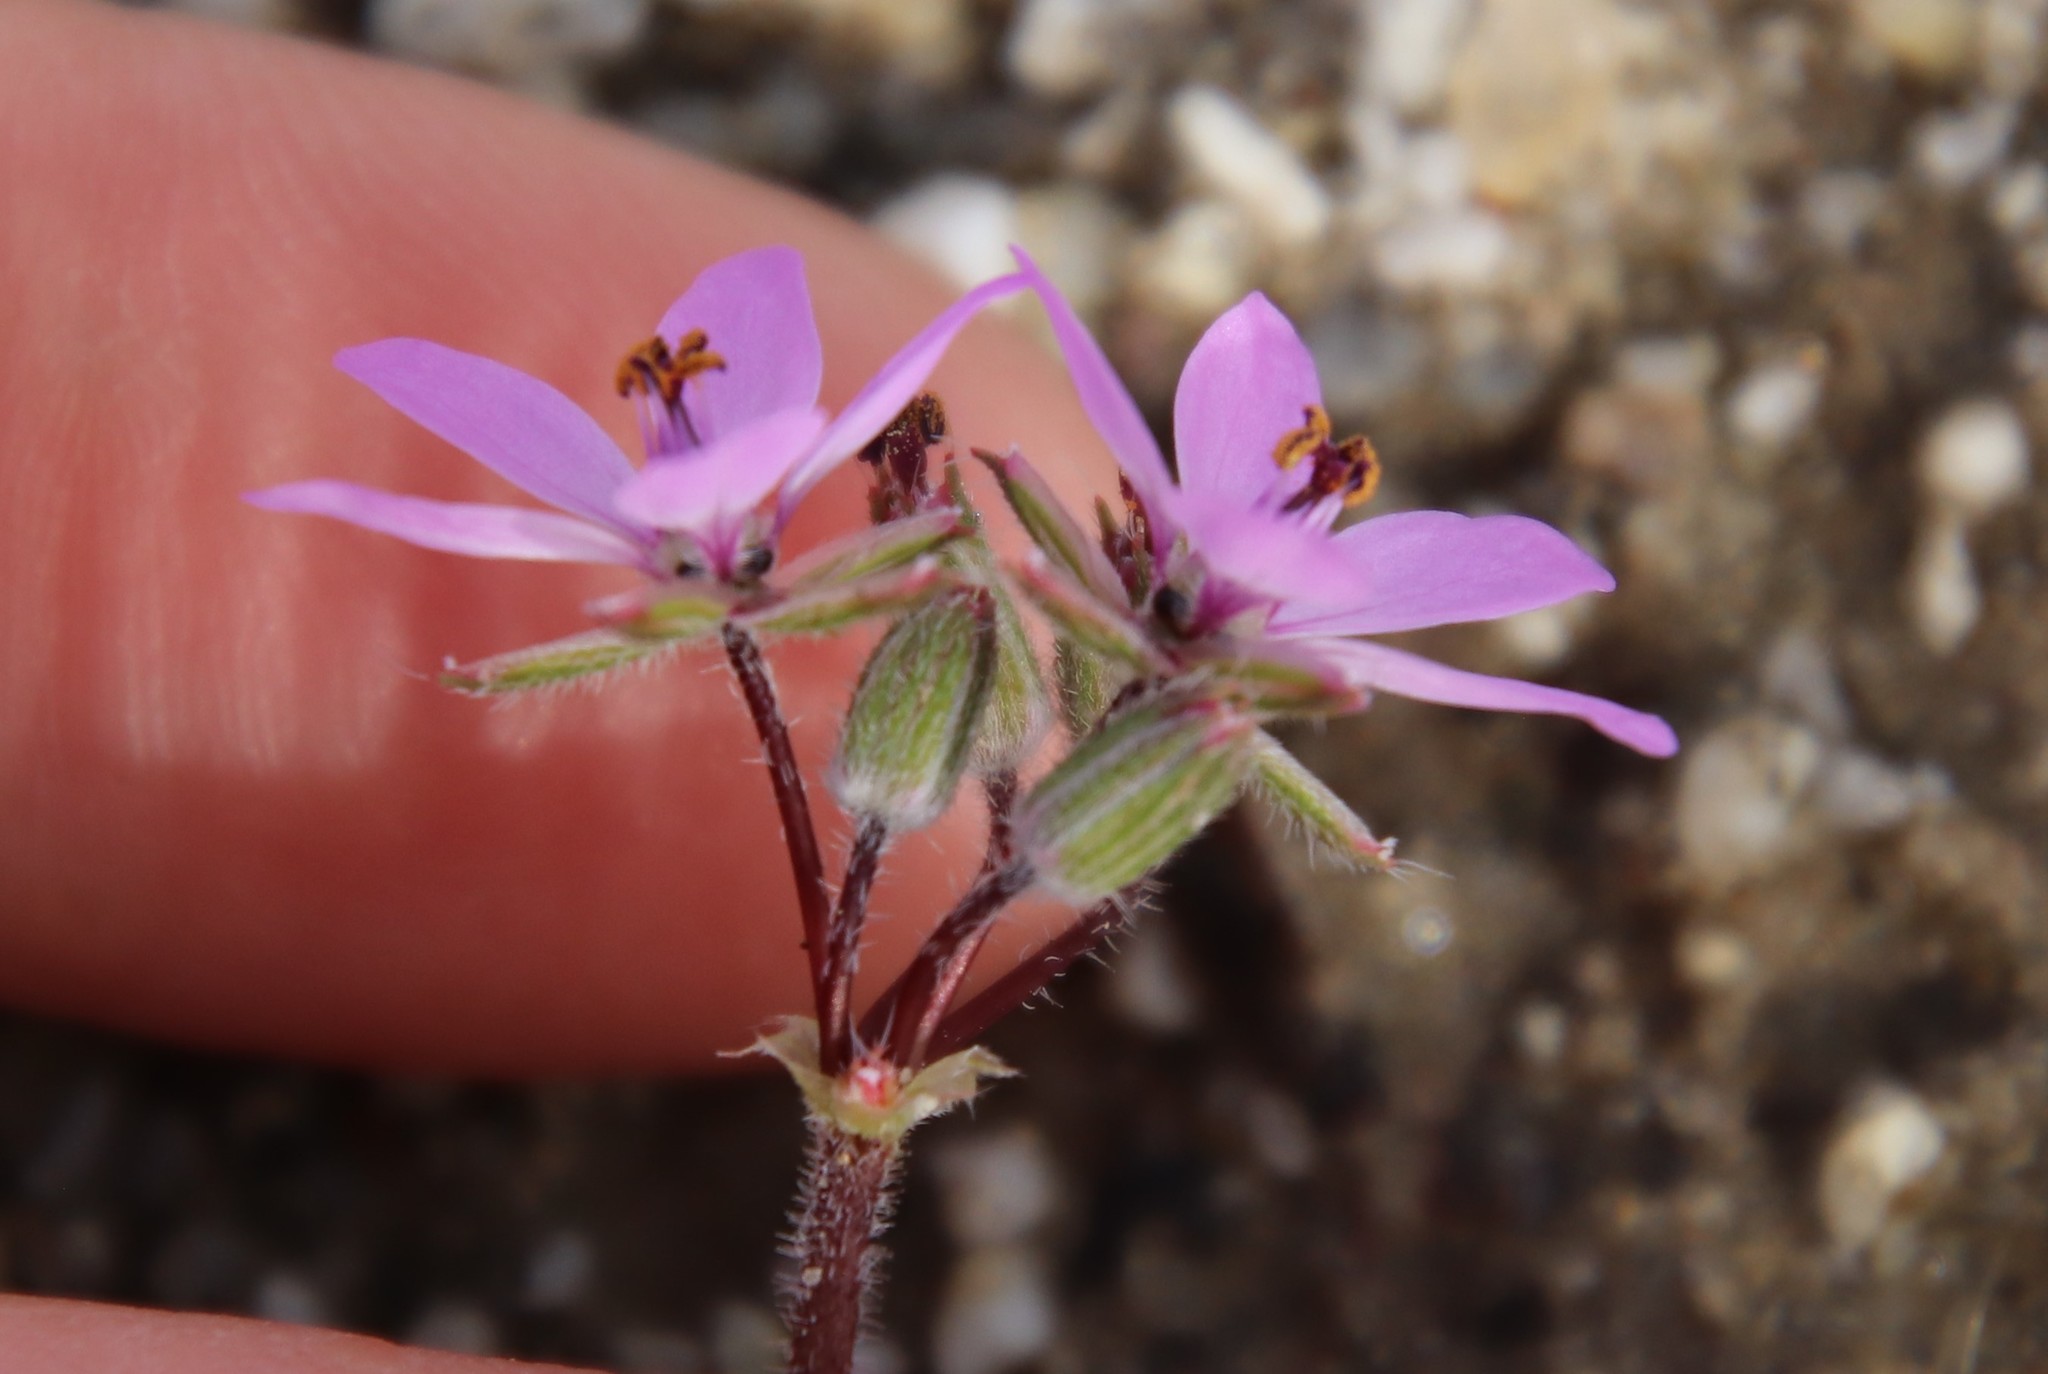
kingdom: Plantae
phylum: Tracheophyta
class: Magnoliopsida
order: Geraniales
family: Geraniaceae
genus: Erodium
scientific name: Erodium cicutarium
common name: Common stork's-bill
